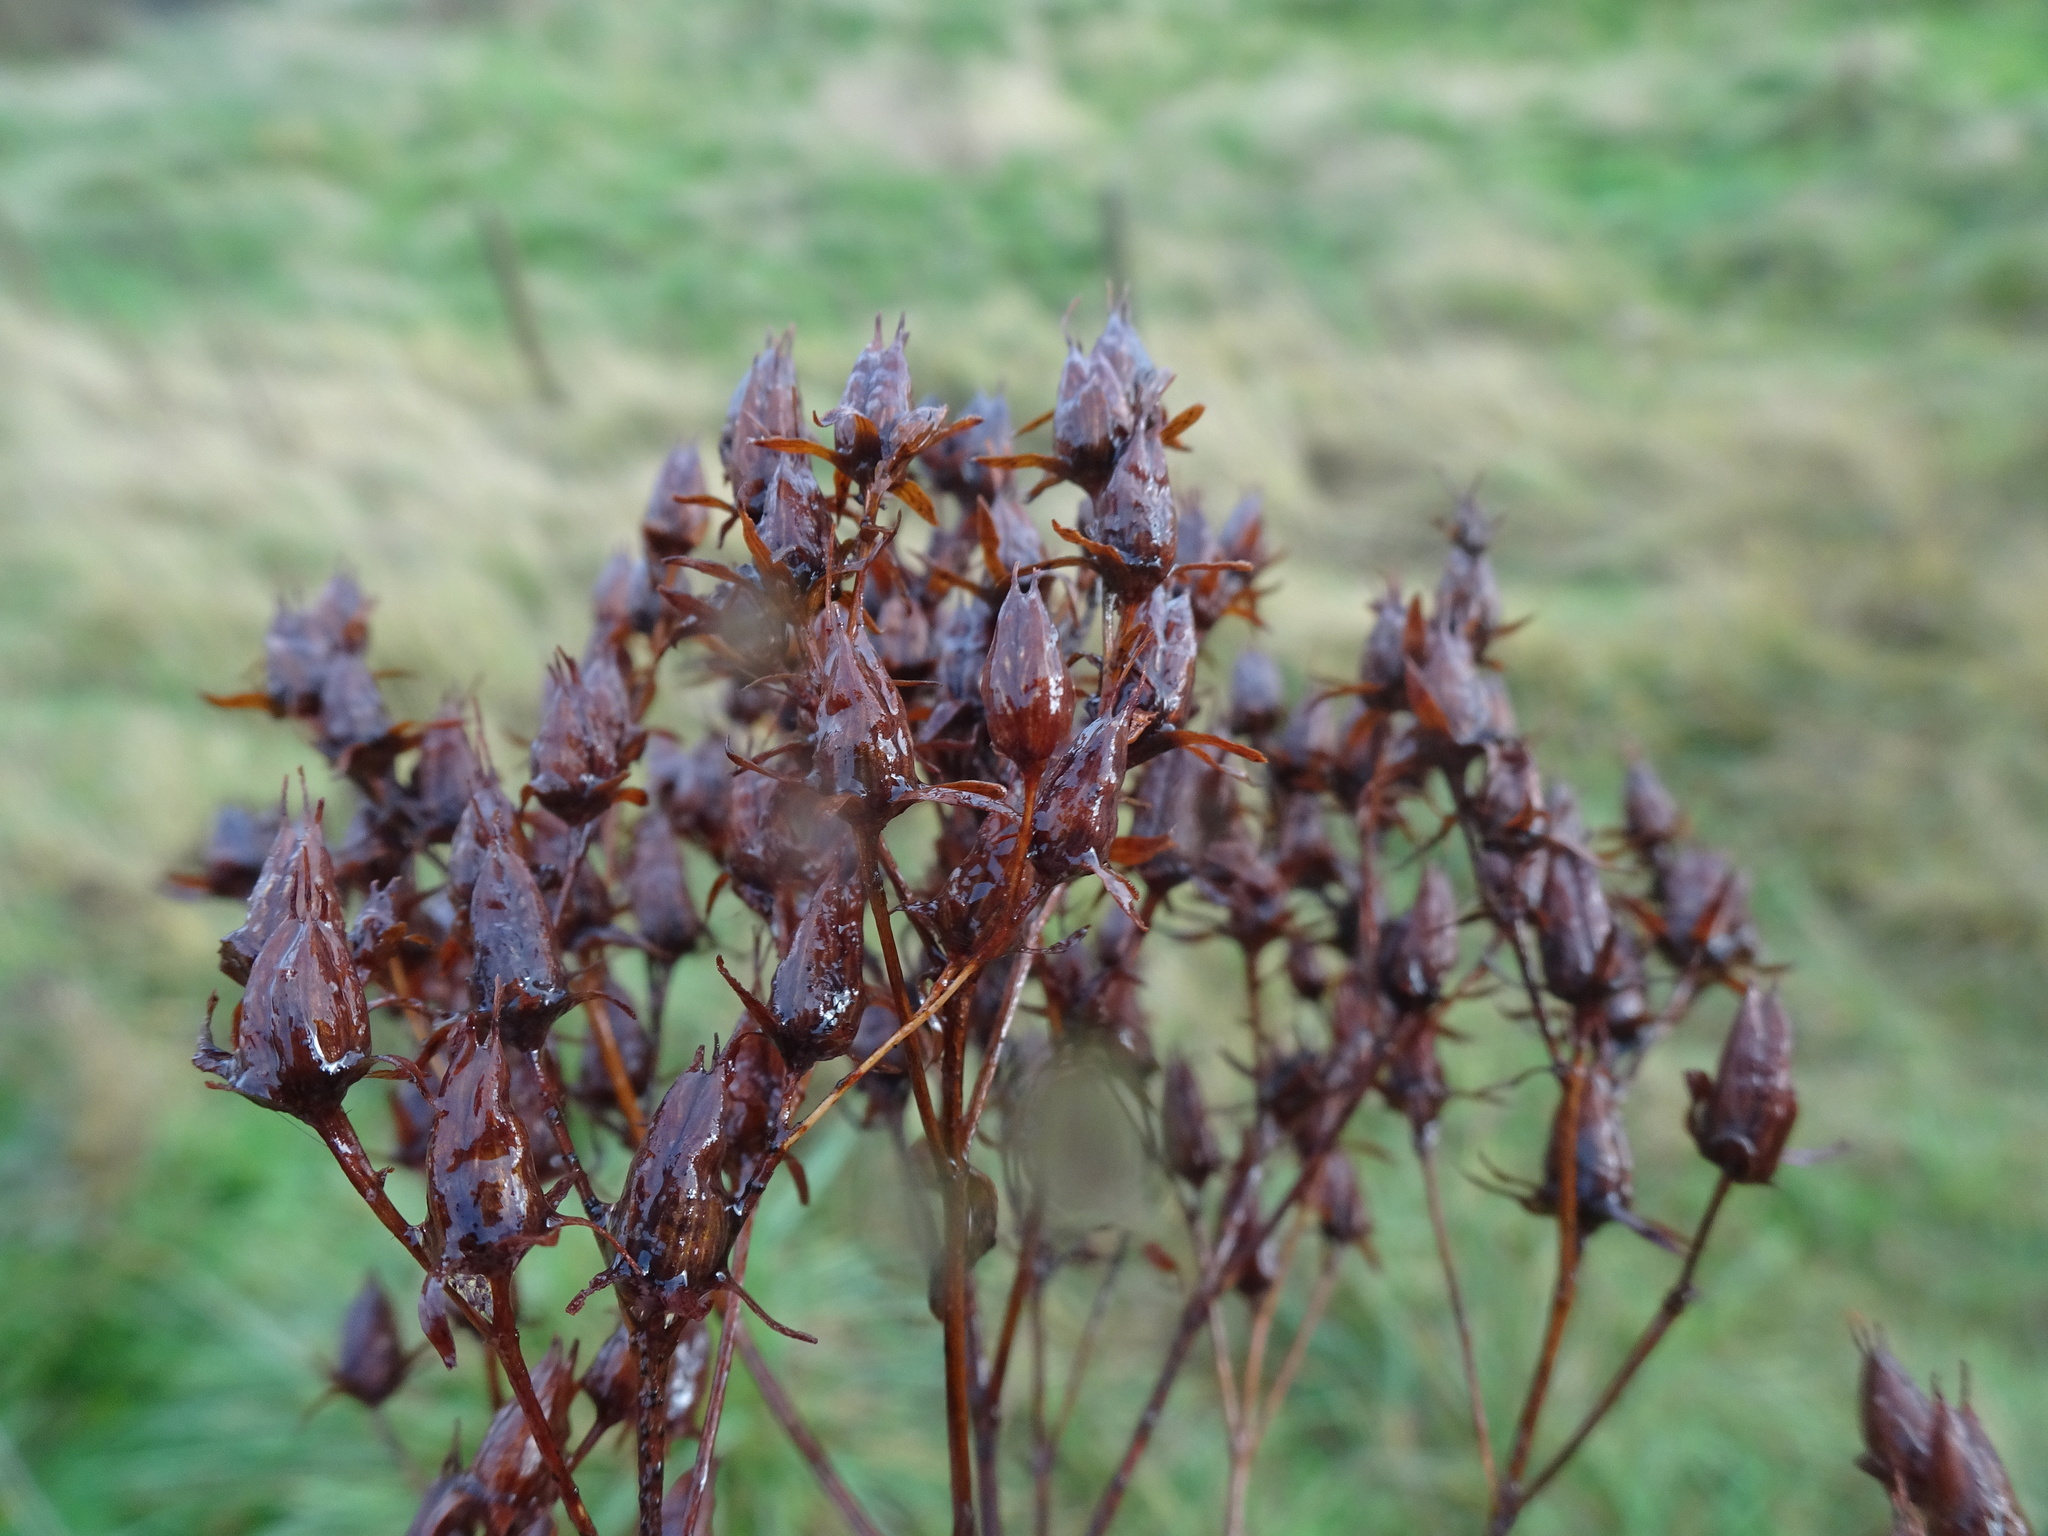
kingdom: Plantae
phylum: Tracheophyta
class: Magnoliopsida
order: Malpighiales
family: Hypericaceae
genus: Hypericum
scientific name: Hypericum perforatum
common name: Common st. johnswort
